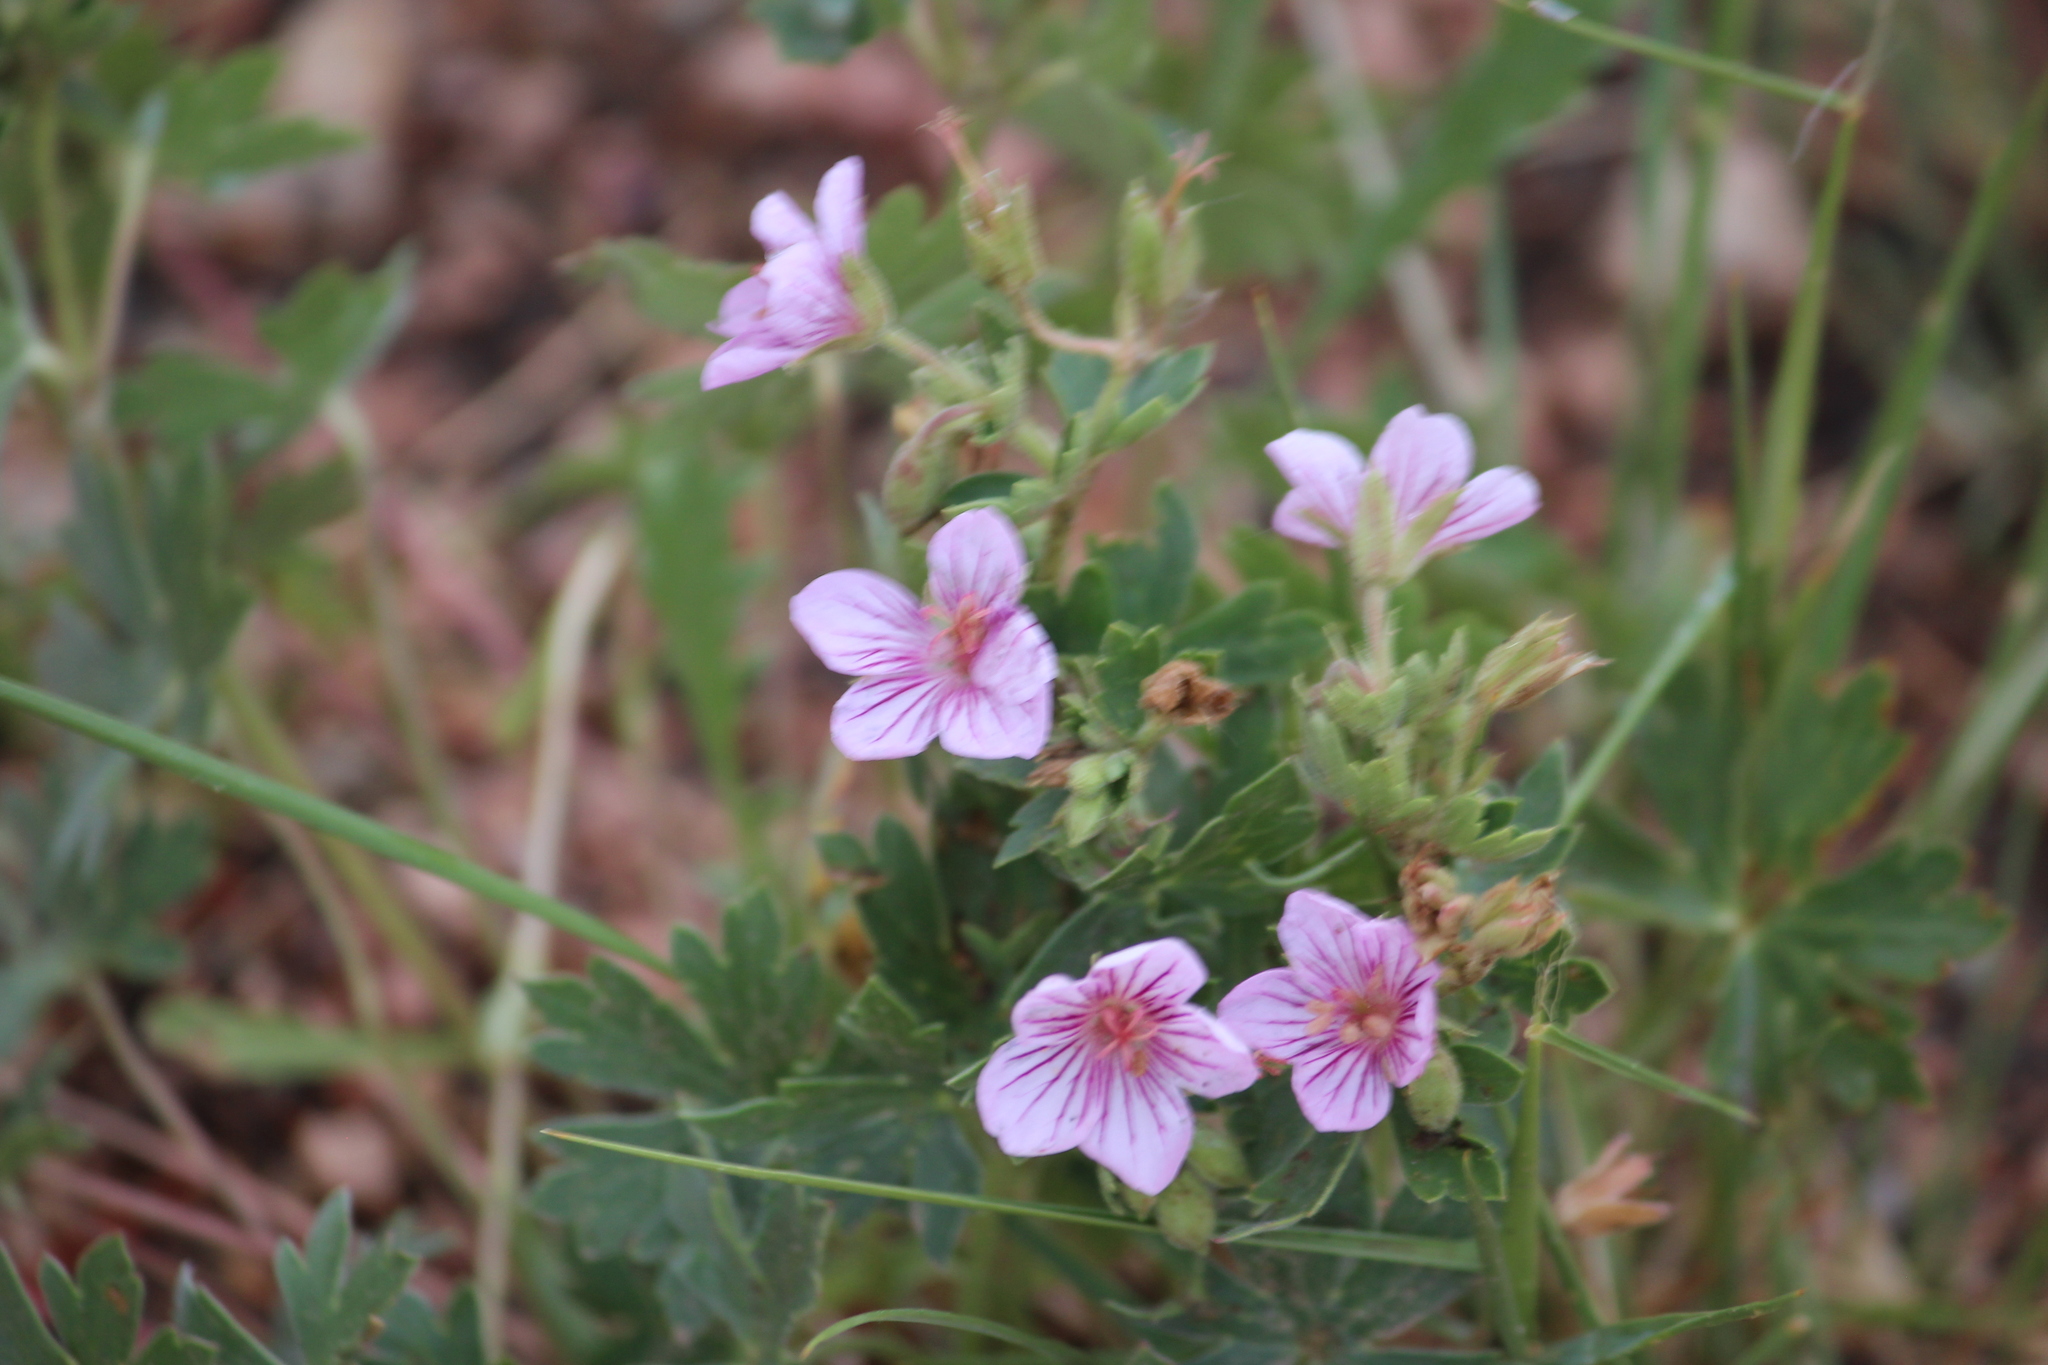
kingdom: Plantae
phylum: Tracheophyta
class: Magnoliopsida
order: Geraniales
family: Geraniaceae
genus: Geranium
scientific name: Geranium caespitosum
